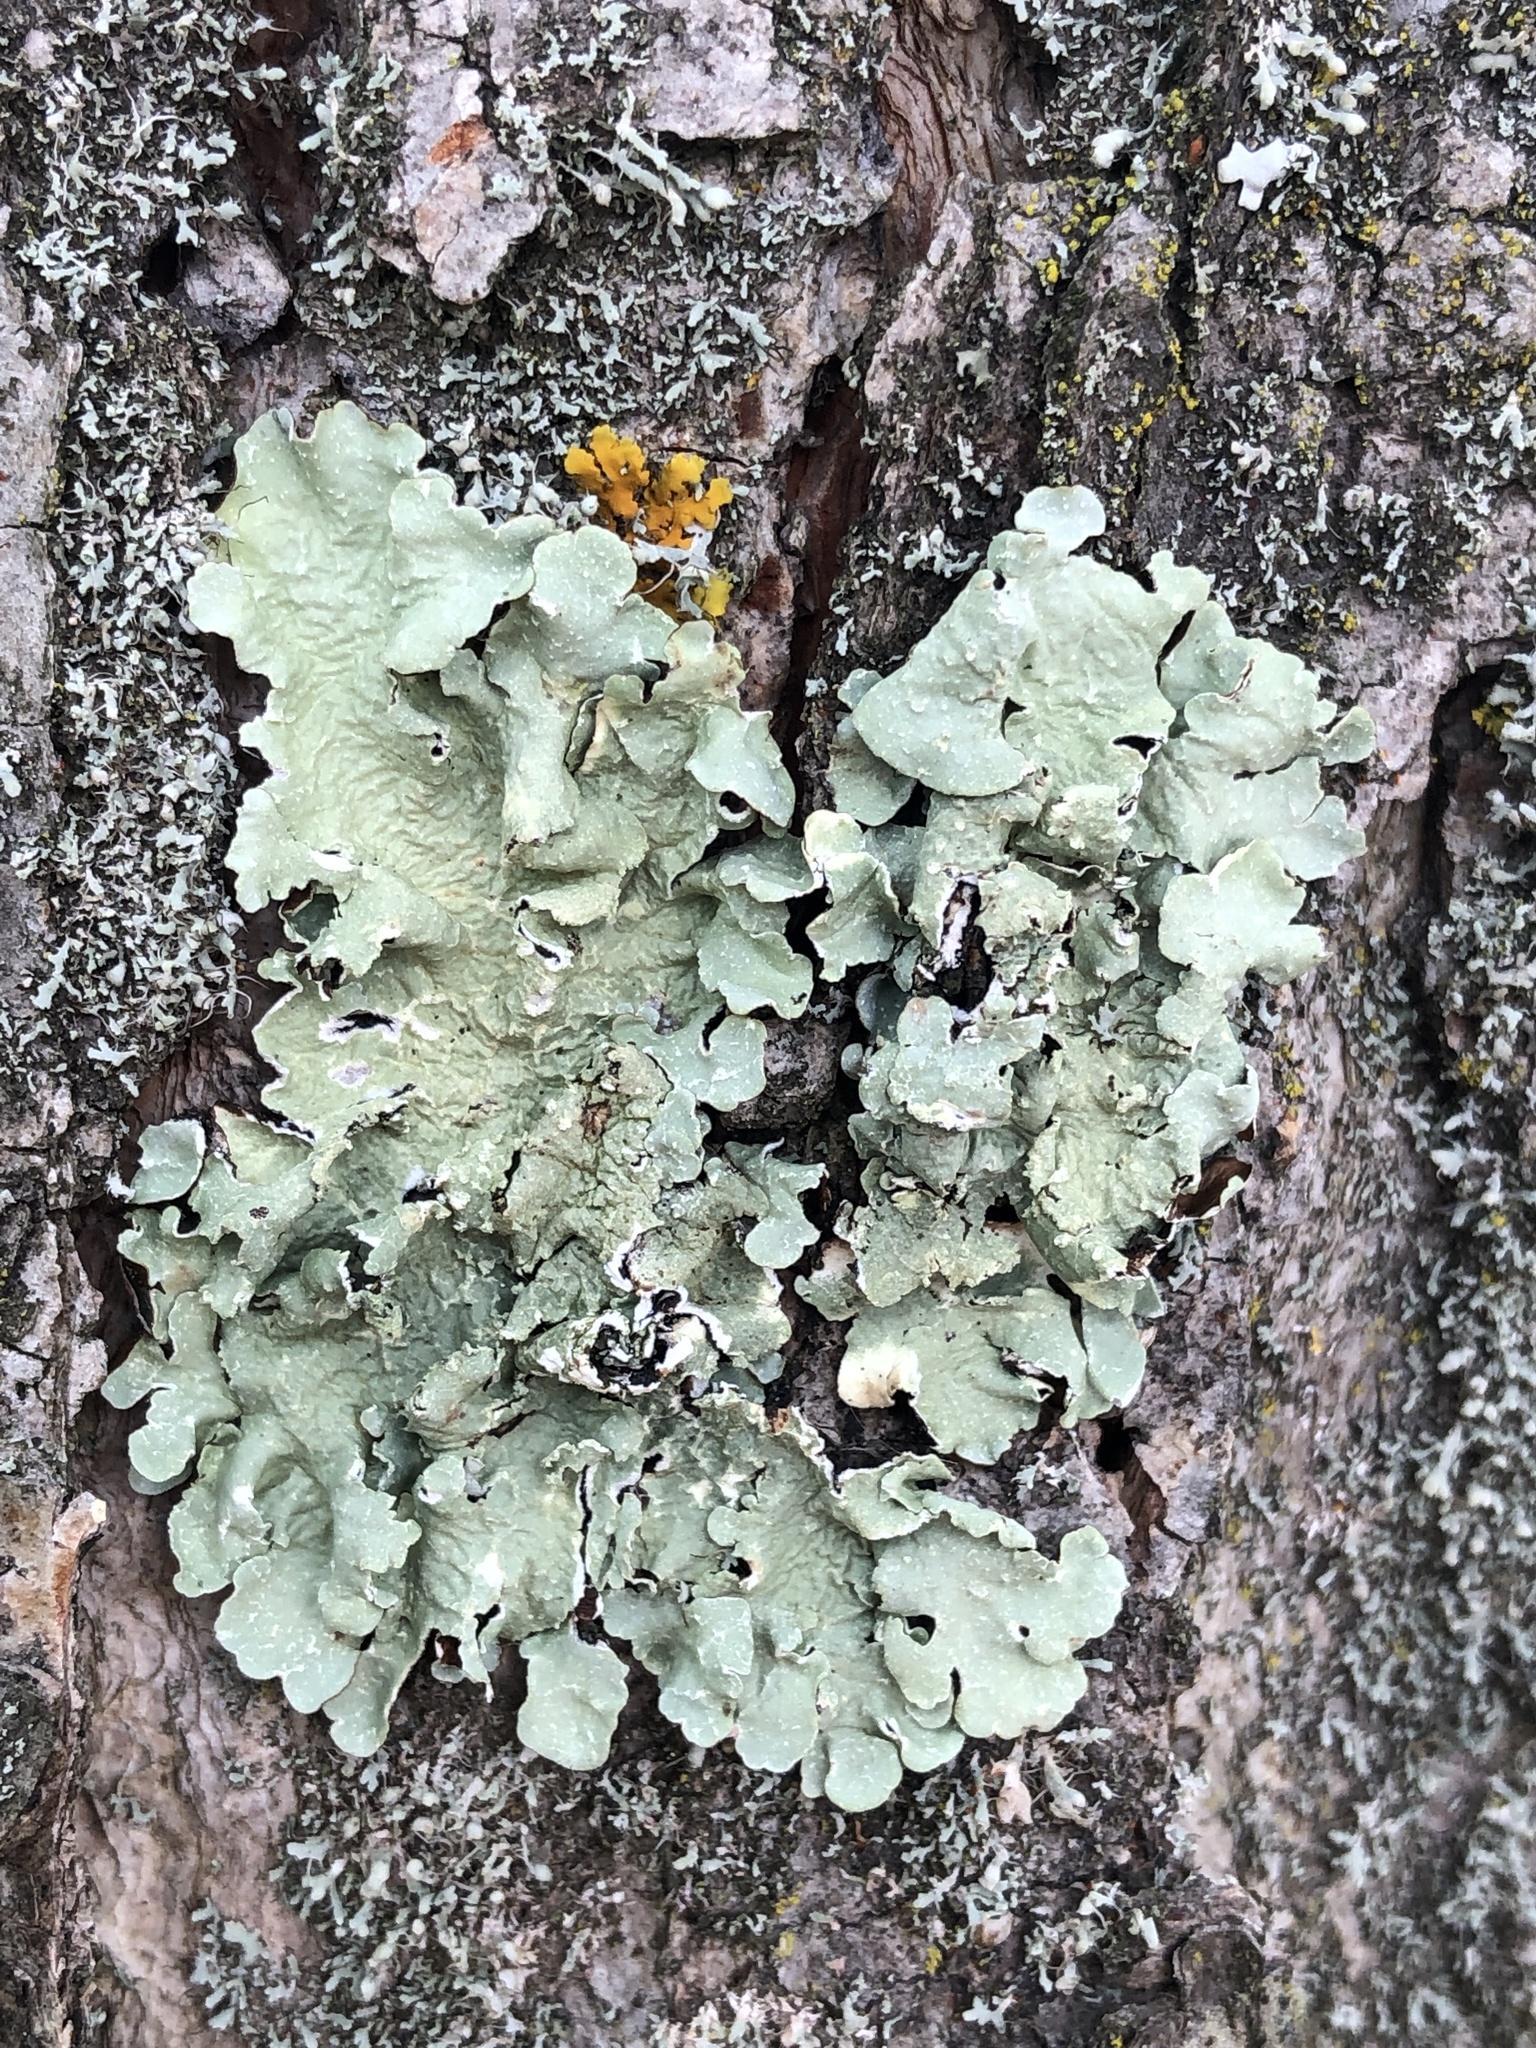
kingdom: Fungi
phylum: Ascomycota
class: Lecanoromycetes
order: Lecanorales
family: Parmeliaceae
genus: Flavopunctelia
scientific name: Flavopunctelia flaventior
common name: Speckled greenshield
